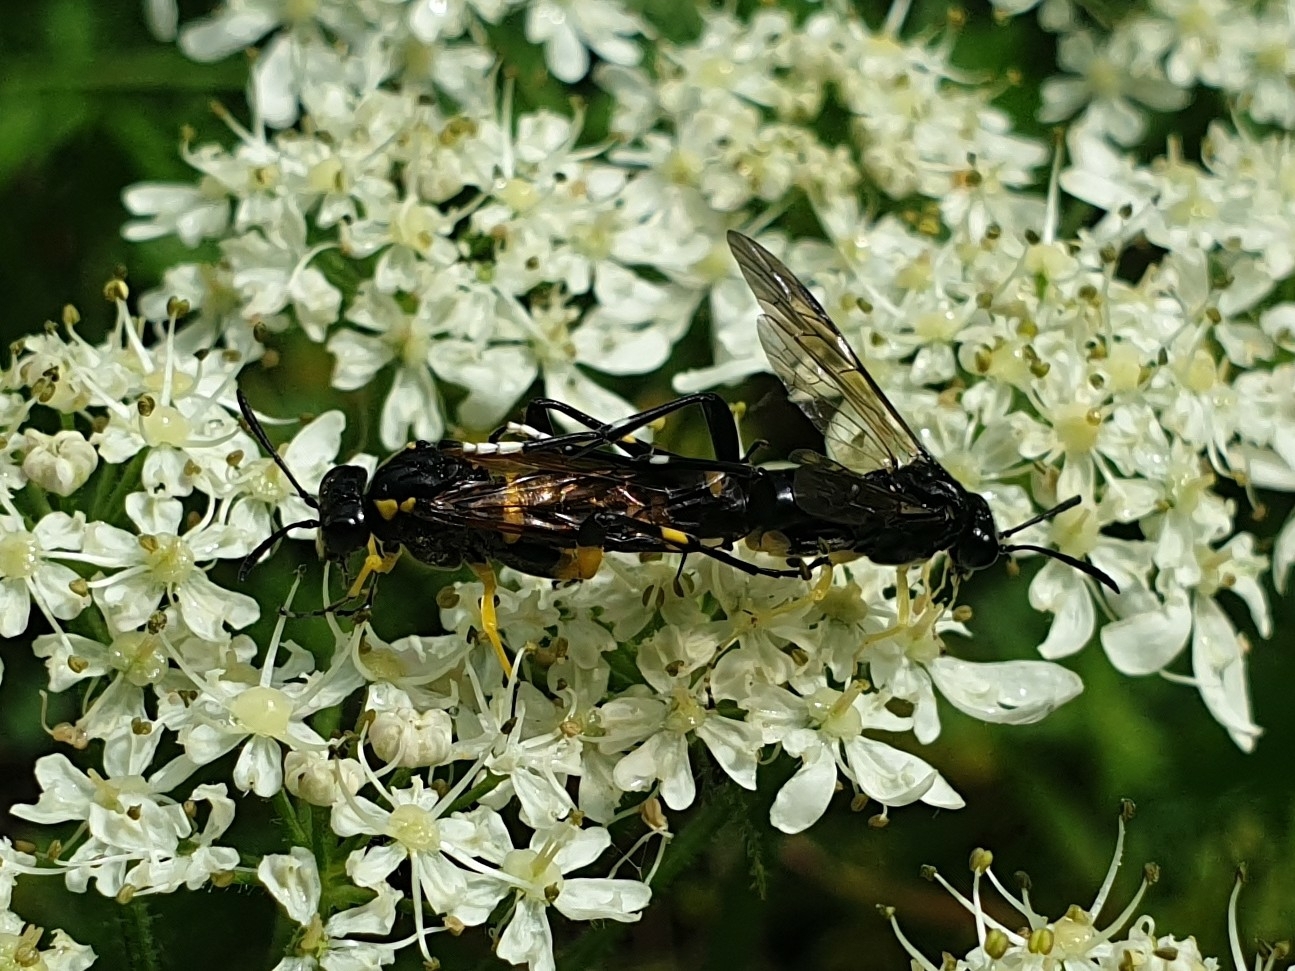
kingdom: Animalia
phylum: Arthropoda
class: Insecta
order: Hymenoptera
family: Tenthredinidae
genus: Macrophya
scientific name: Macrophya montana
